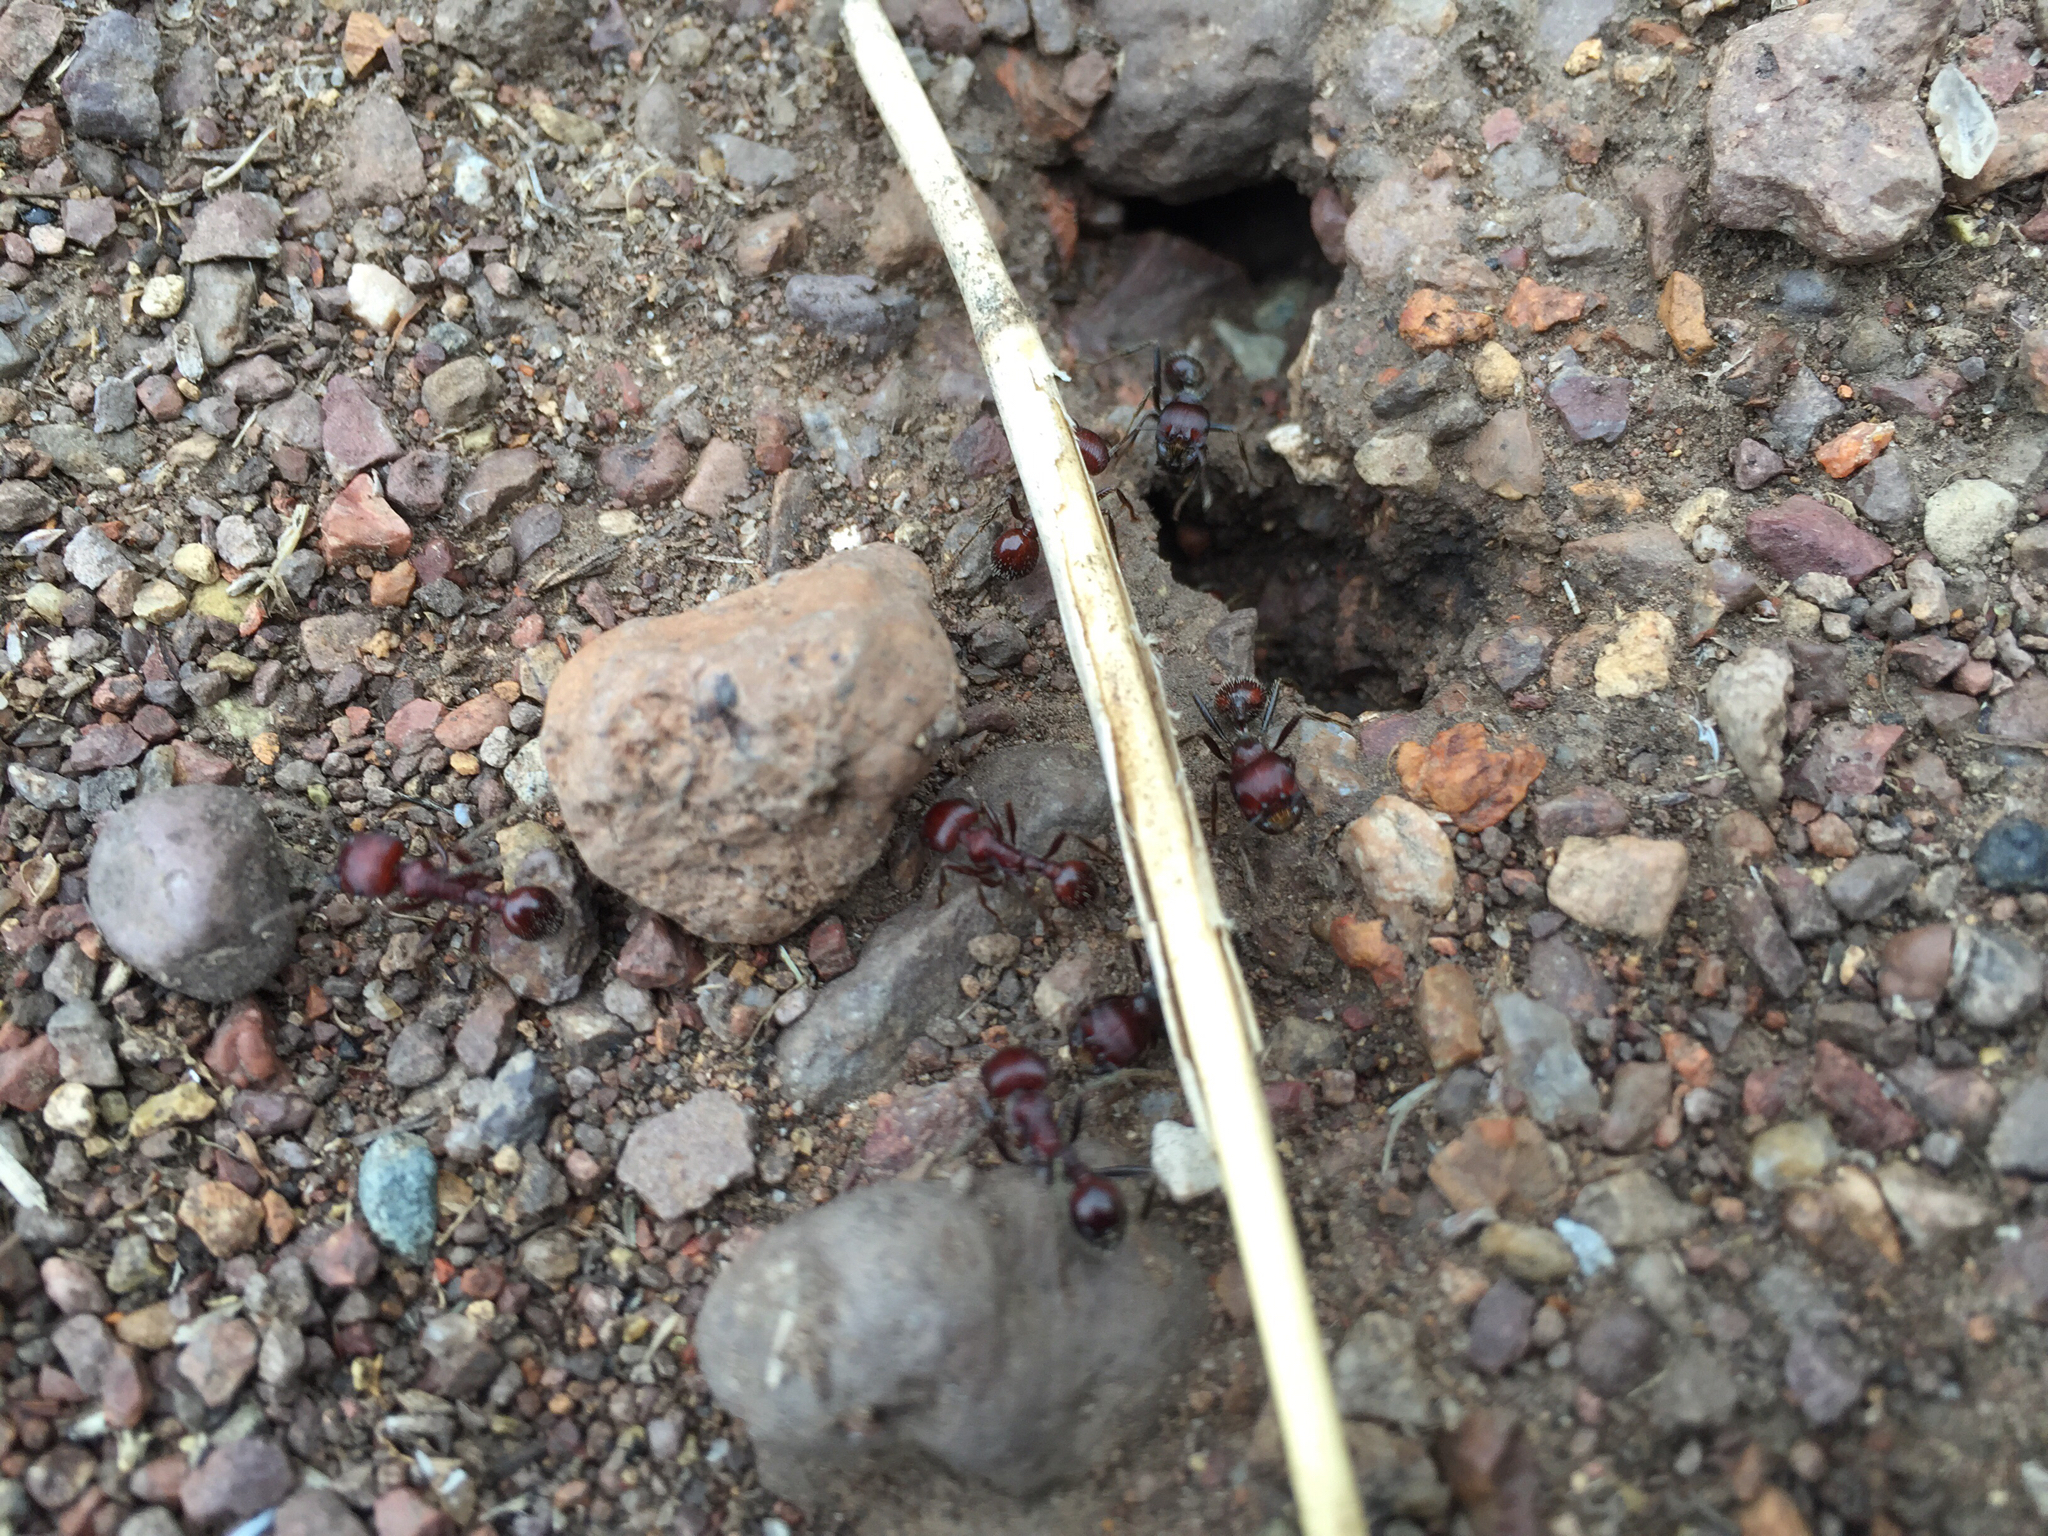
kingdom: Animalia
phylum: Arthropoda
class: Insecta
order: Hymenoptera
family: Formicidae
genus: Pogonomyrmex
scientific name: Pogonomyrmex
